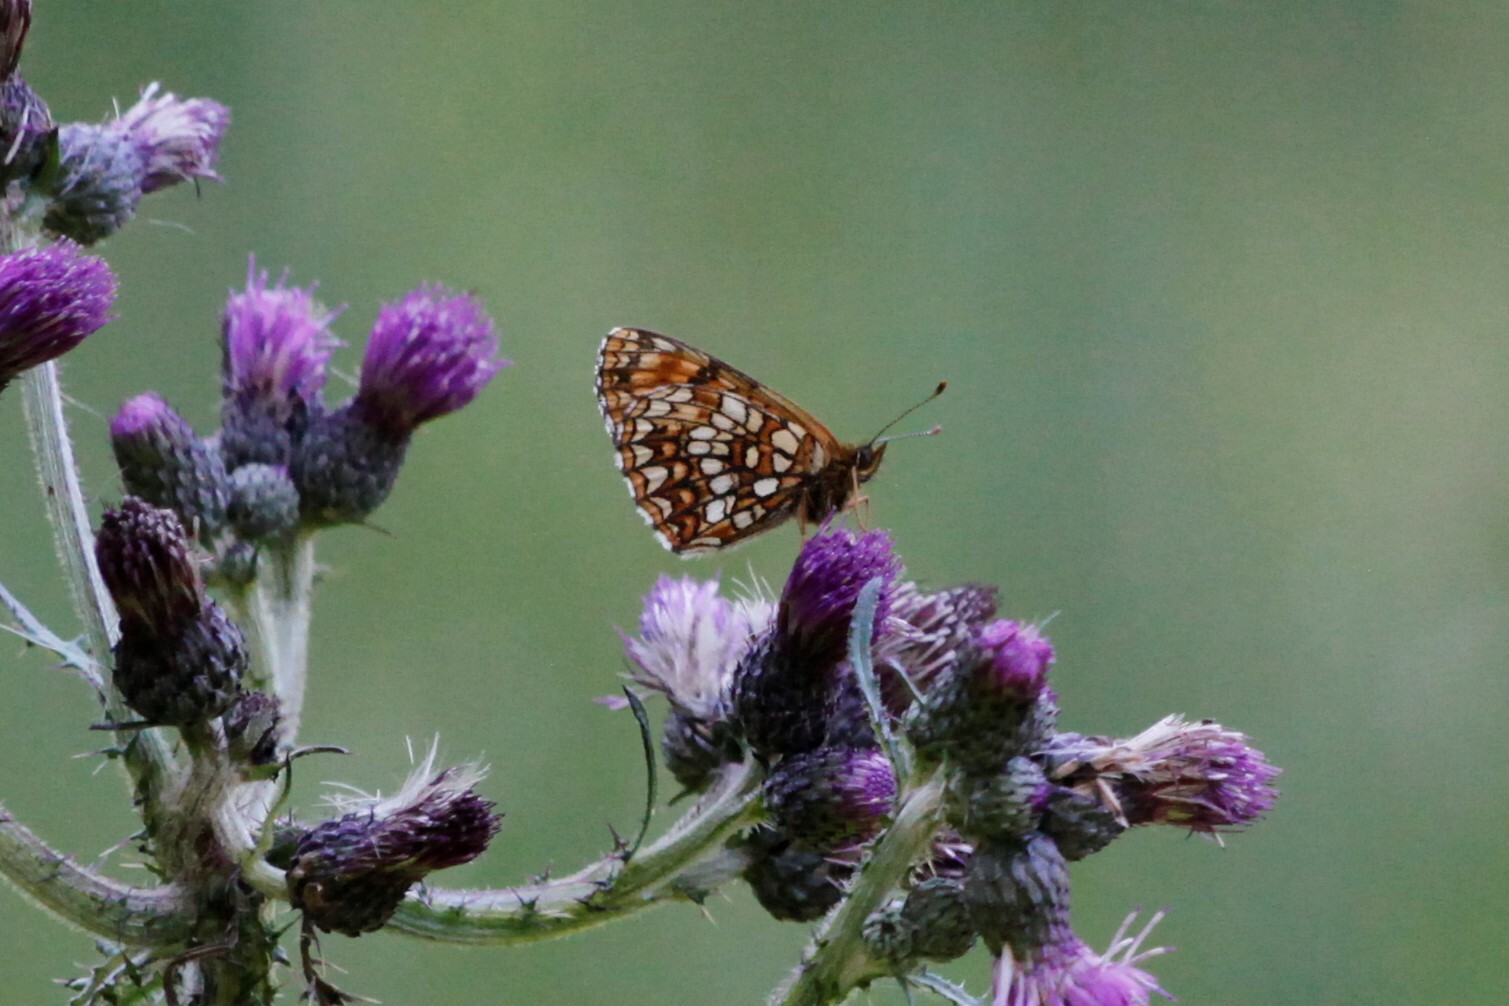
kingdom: Animalia
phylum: Arthropoda
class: Insecta
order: Lepidoptera
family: Nymphalidae
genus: Melitaea
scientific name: Melitaea diamina
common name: False heath fritillary
